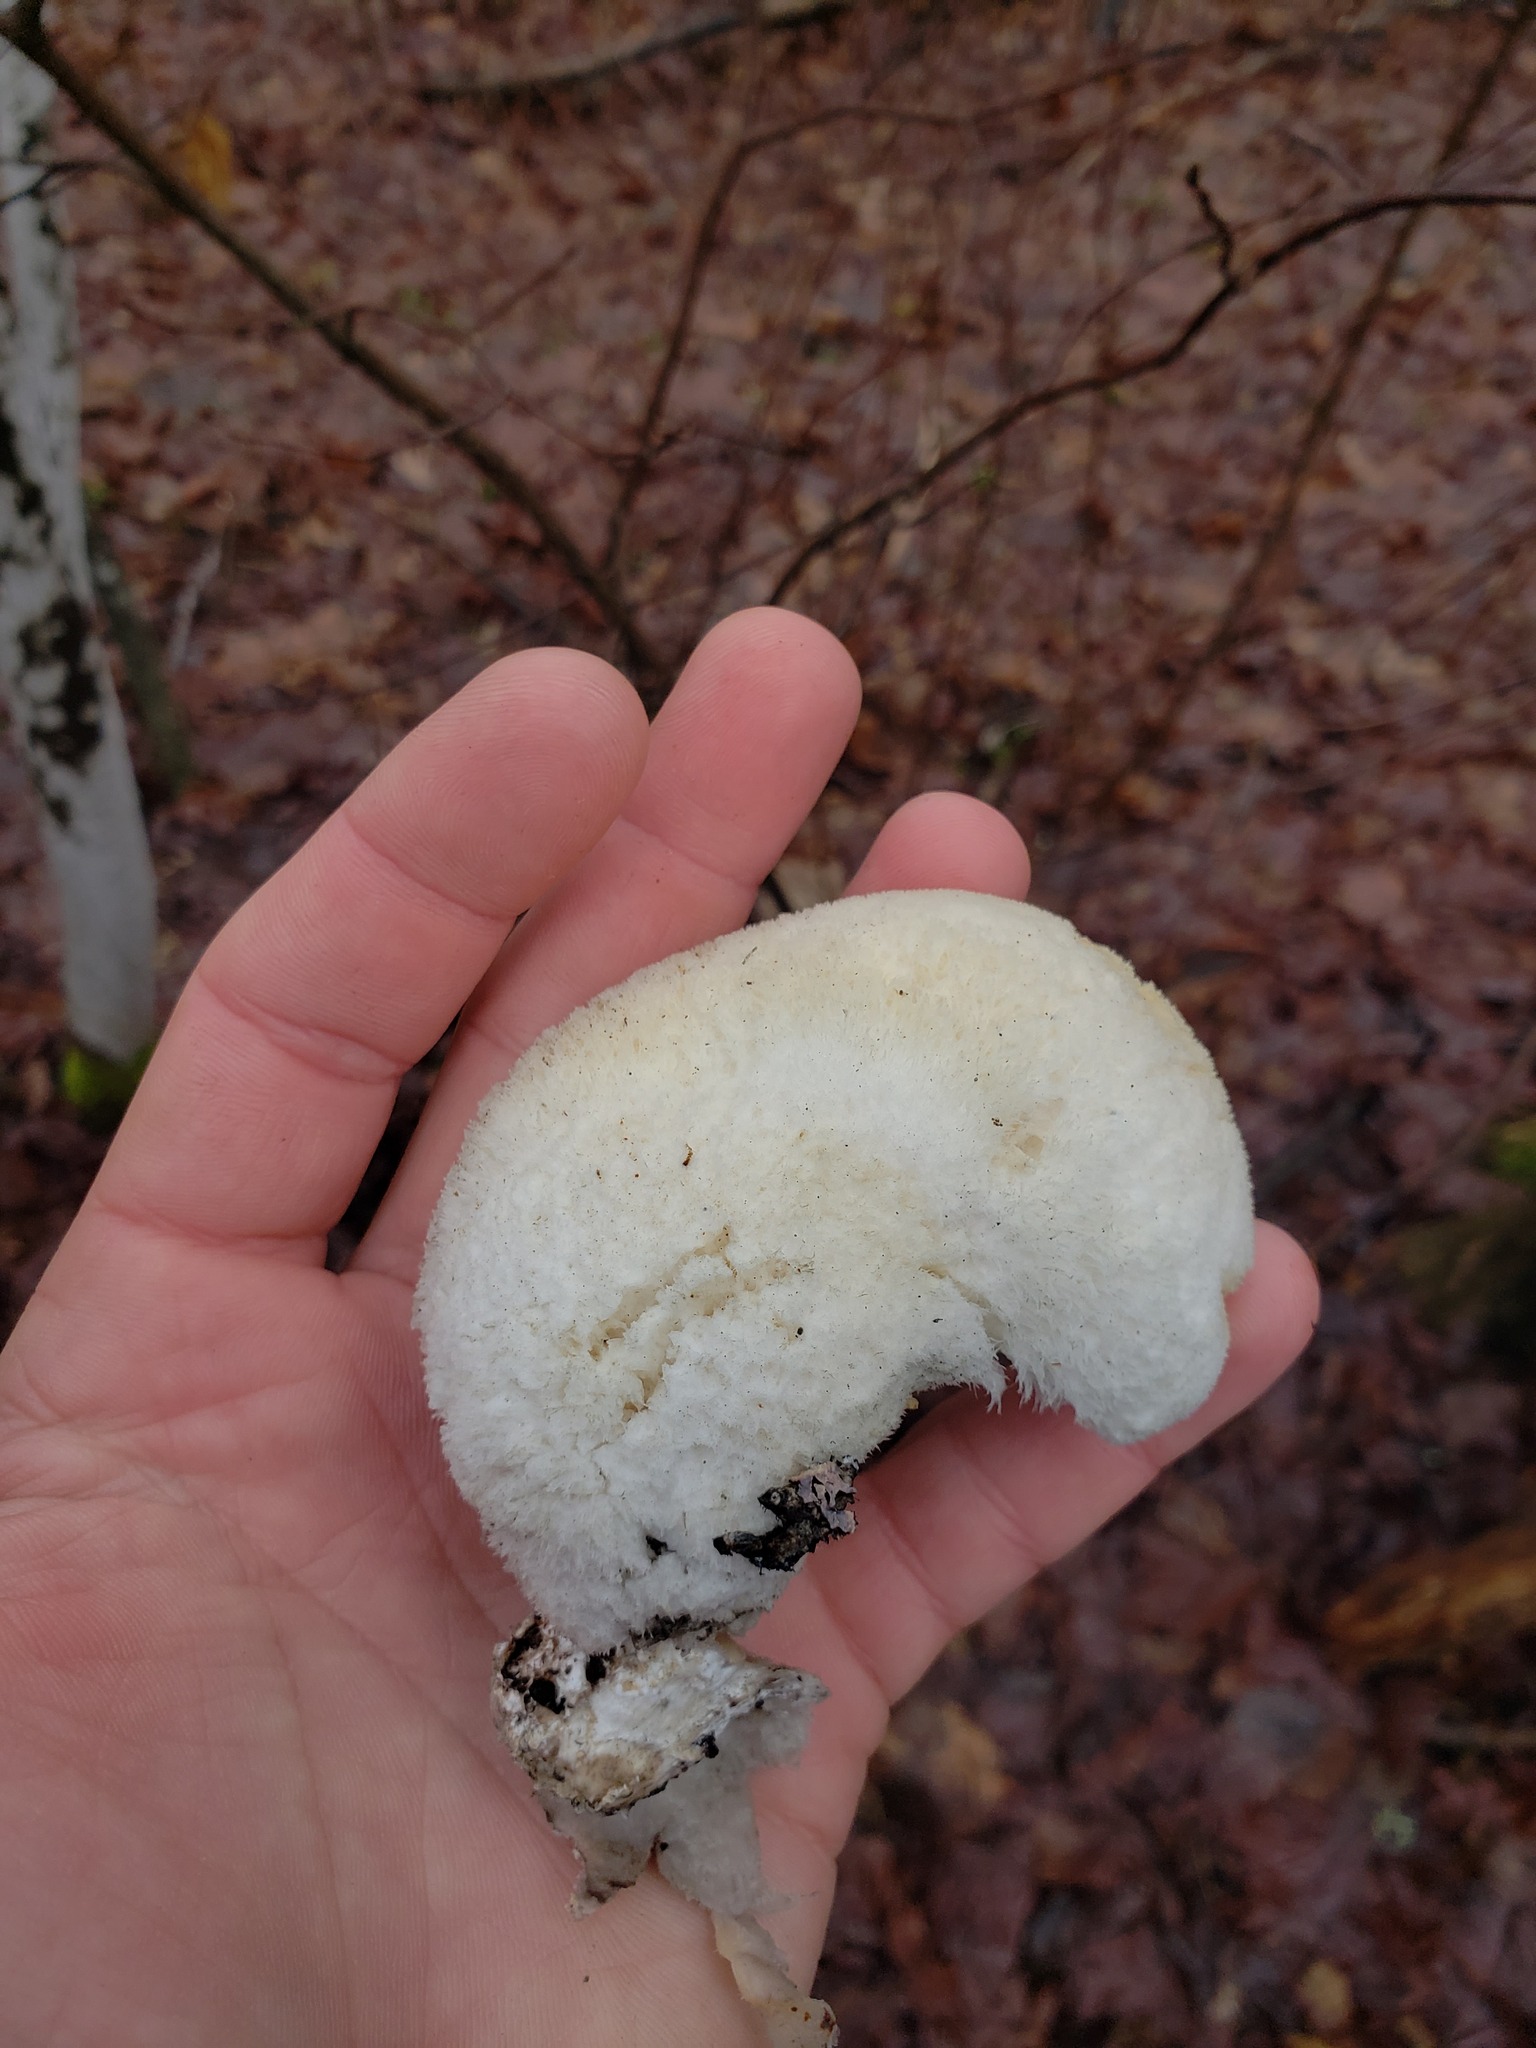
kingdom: Fungi
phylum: Basidiomycota
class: Agaricomycetes
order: Polyporales
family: Meruliaceae
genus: Spongipellis
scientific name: Spongipellis
